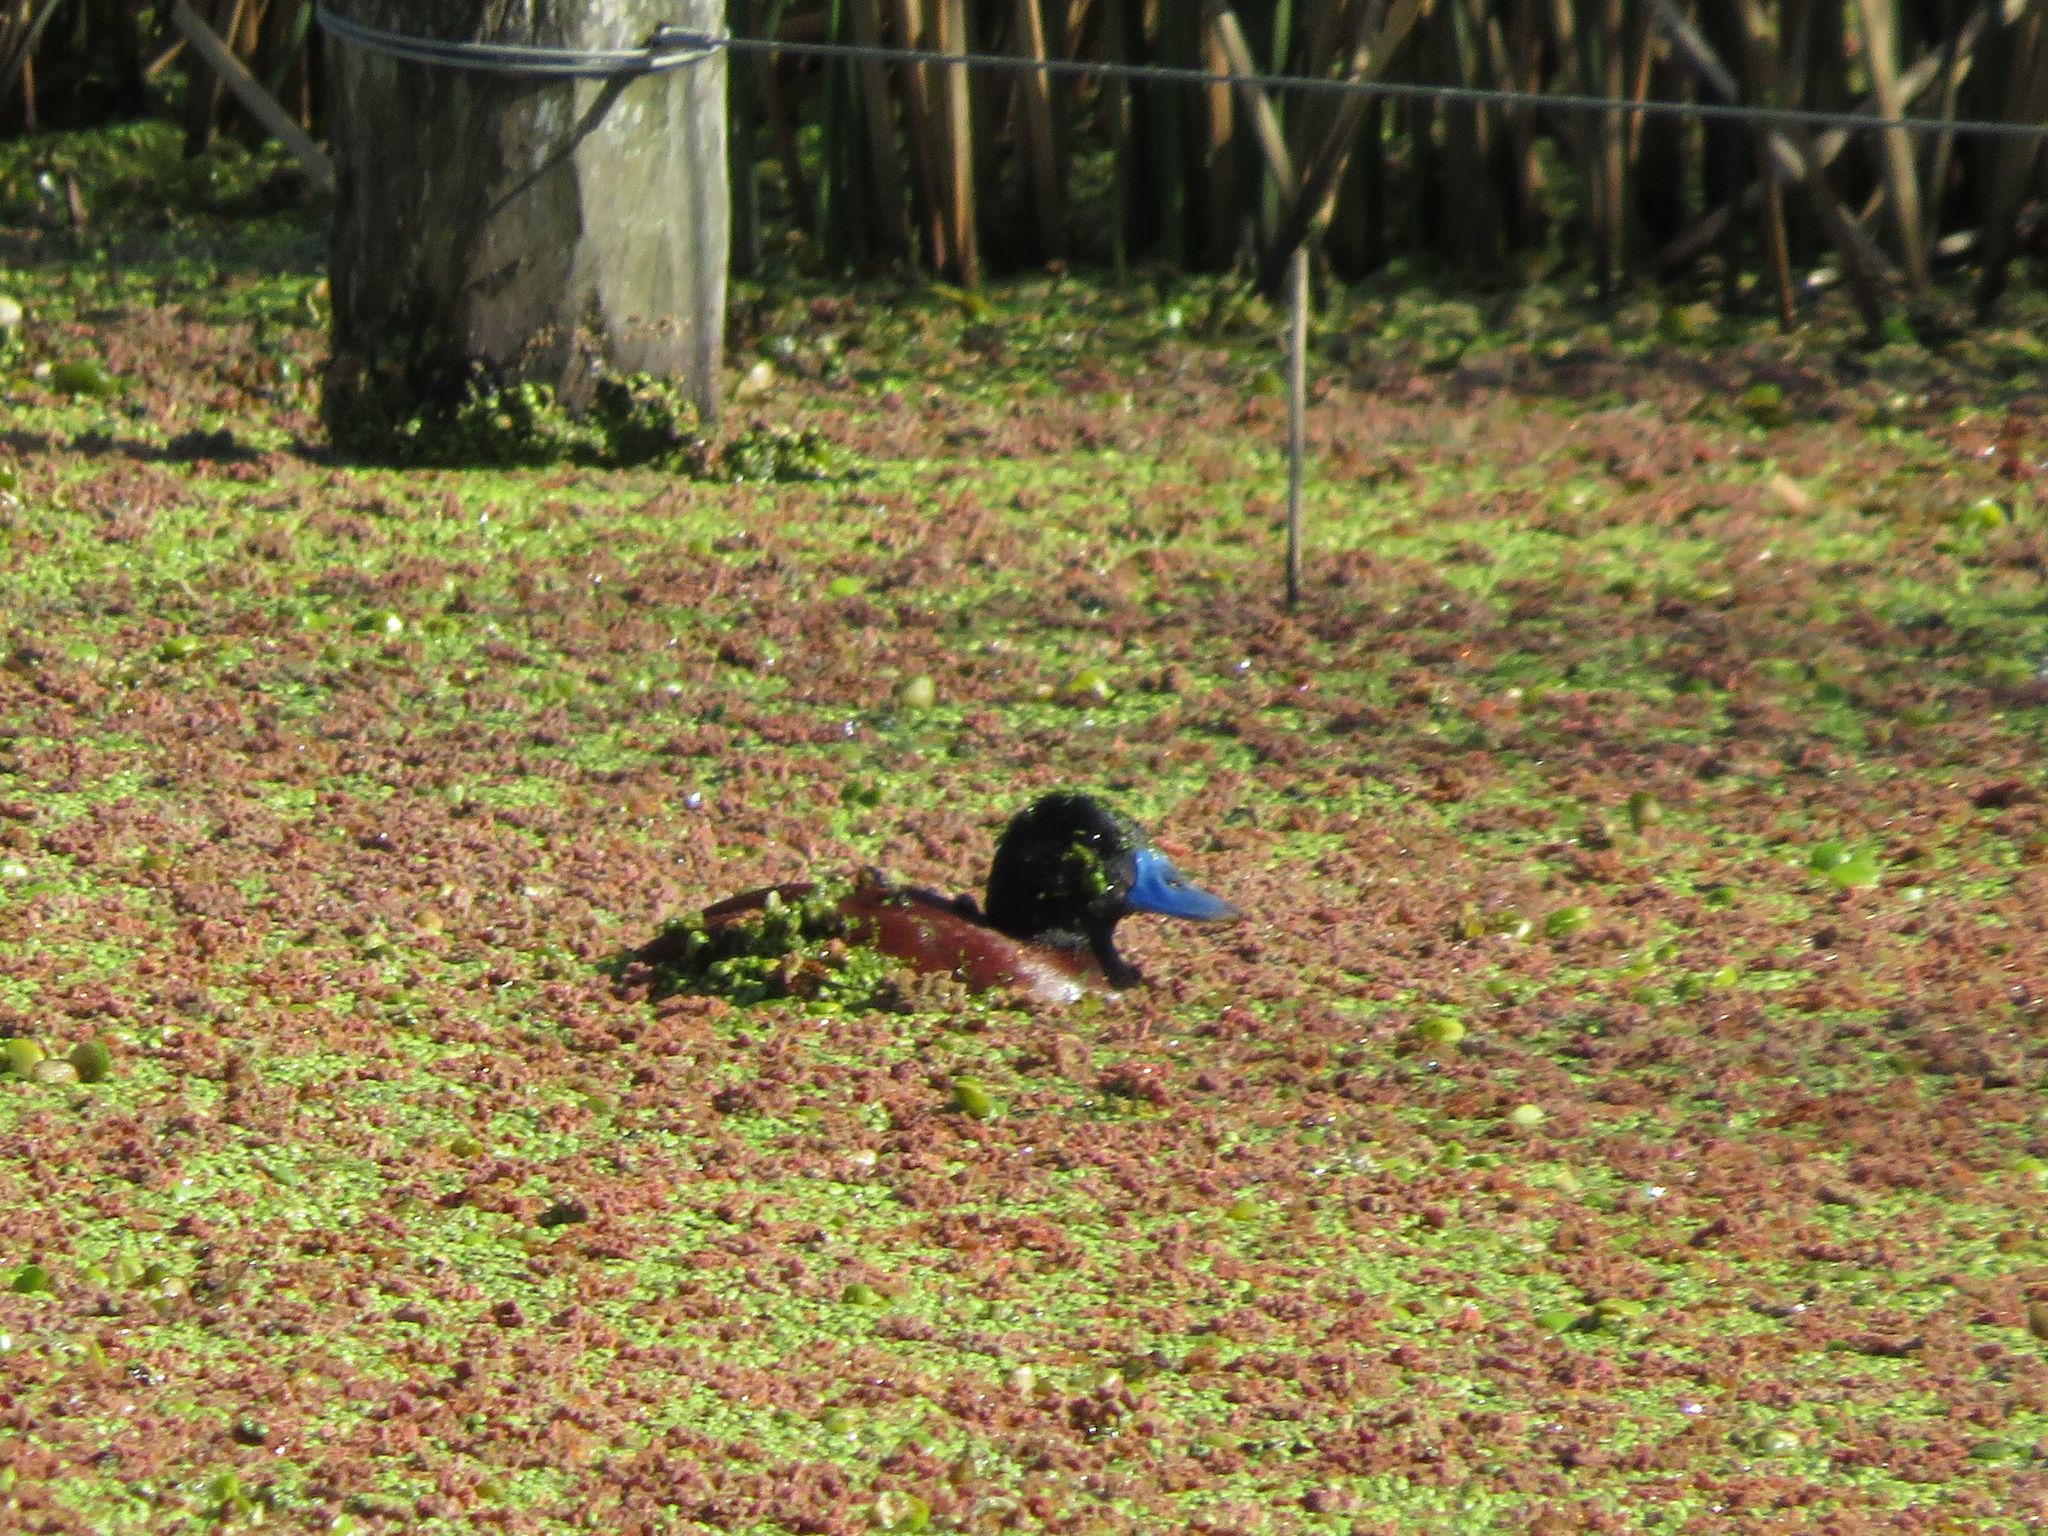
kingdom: Animalia
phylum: Chordata
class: Aves
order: Anseriformes
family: Anatidae
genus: Oxyura
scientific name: Oxyura vittata
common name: Lake duck
